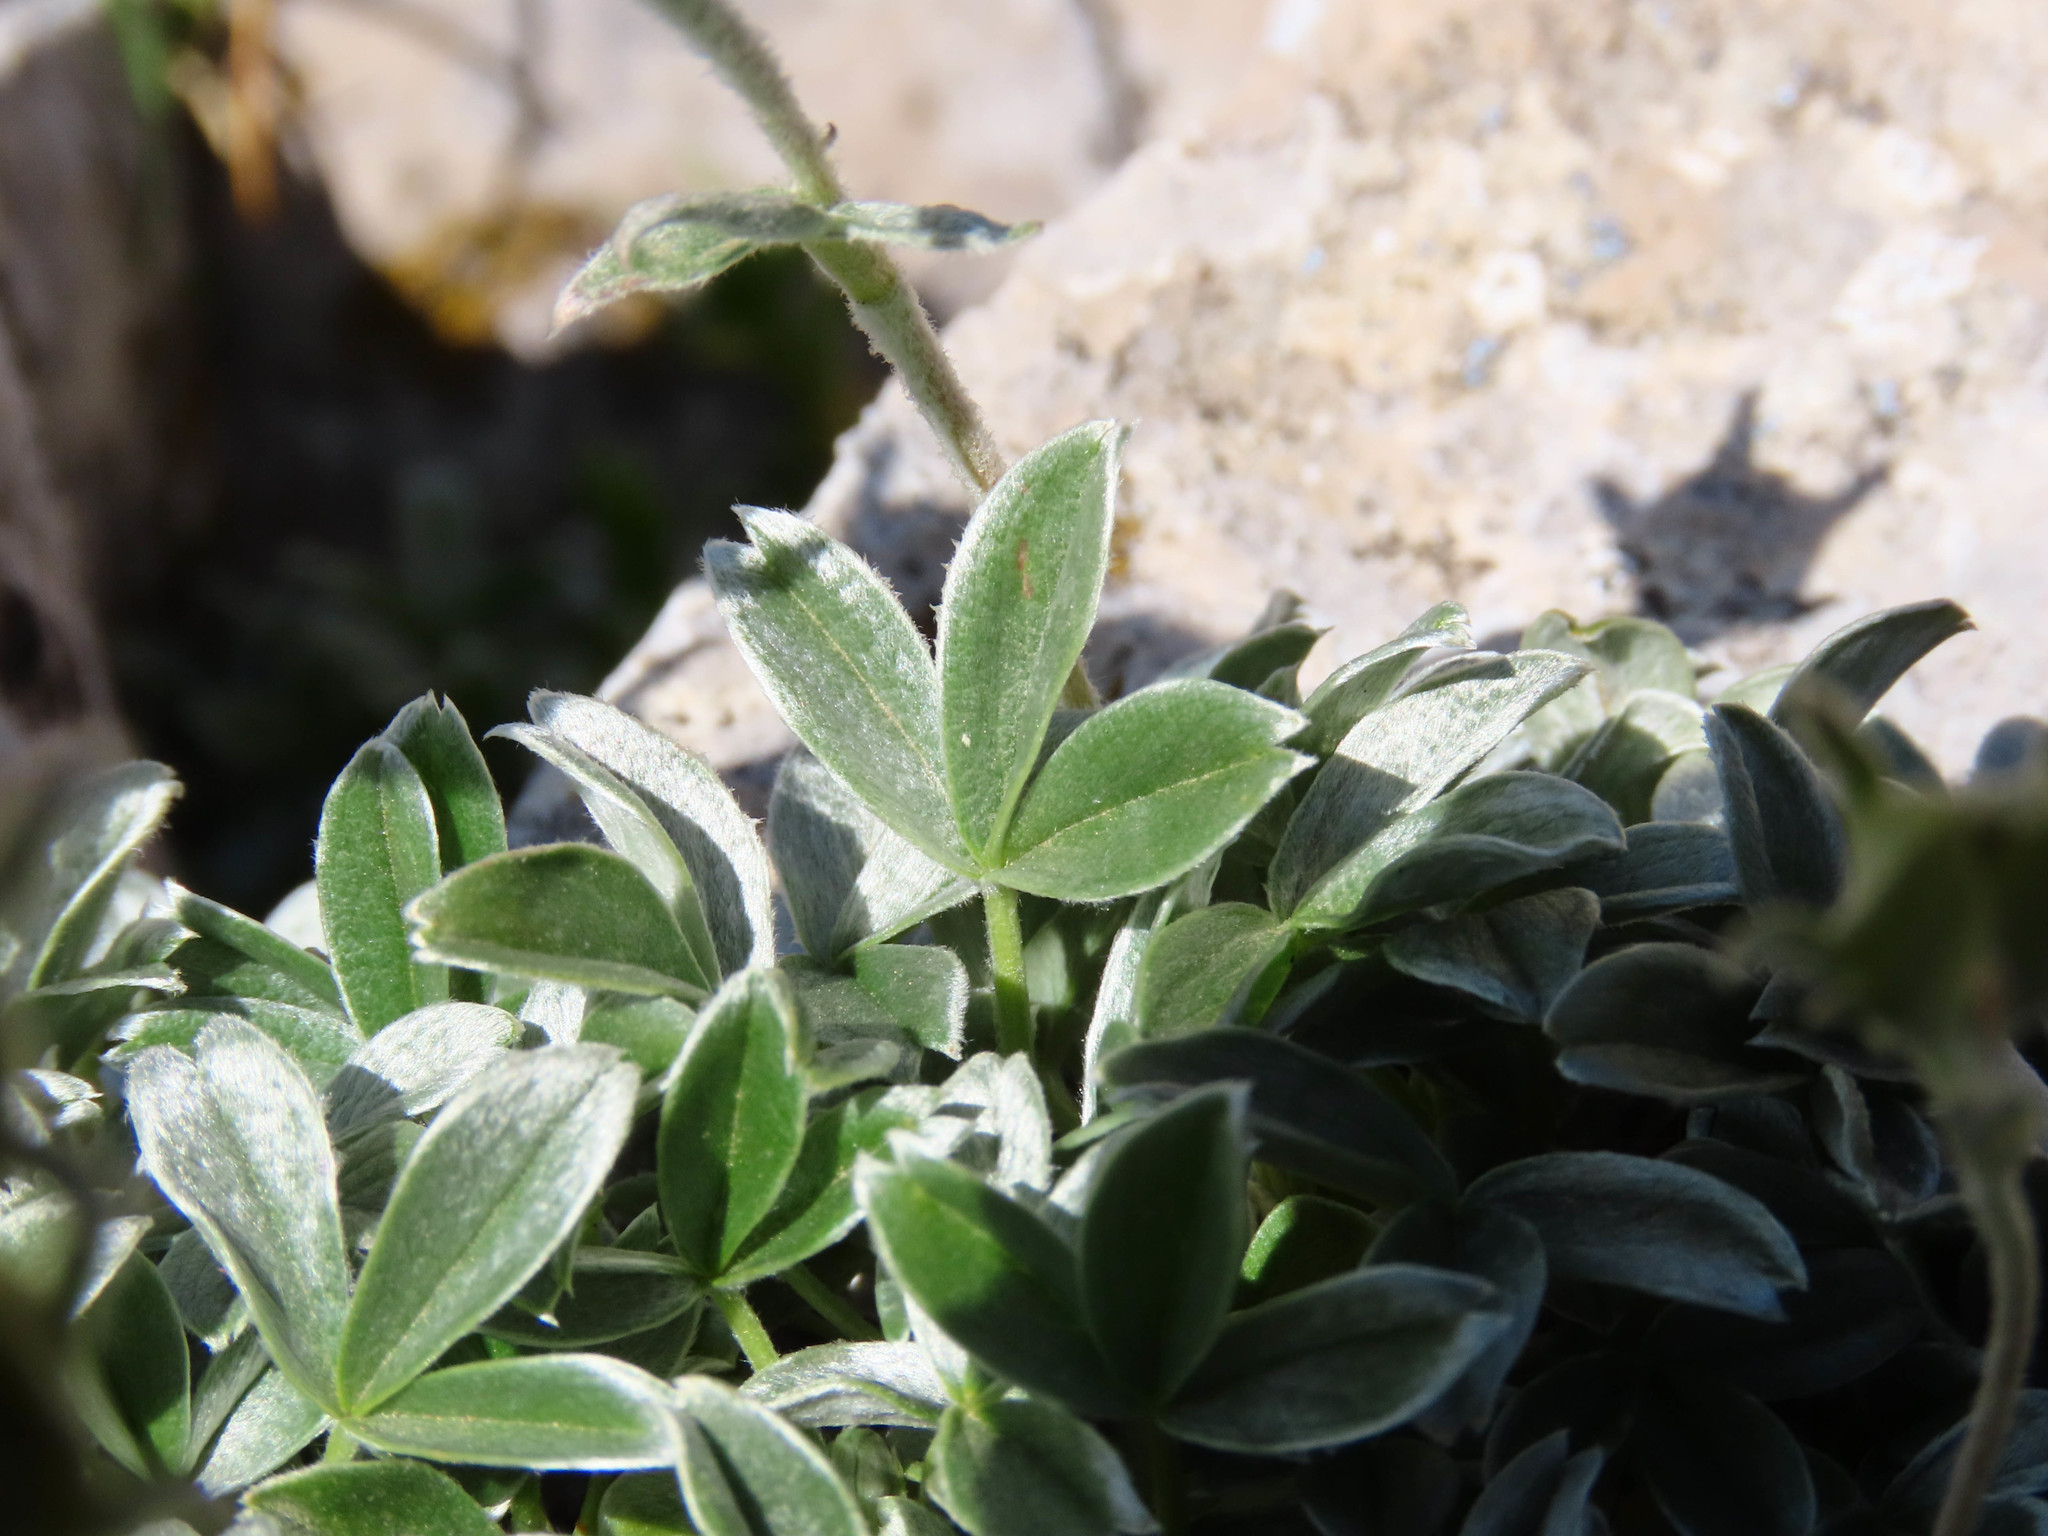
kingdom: Plantae
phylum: Tracheophyta
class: Magnoliopsida
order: Rosales
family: Rosaceae
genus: Potentilla
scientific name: Potentilla apennina
